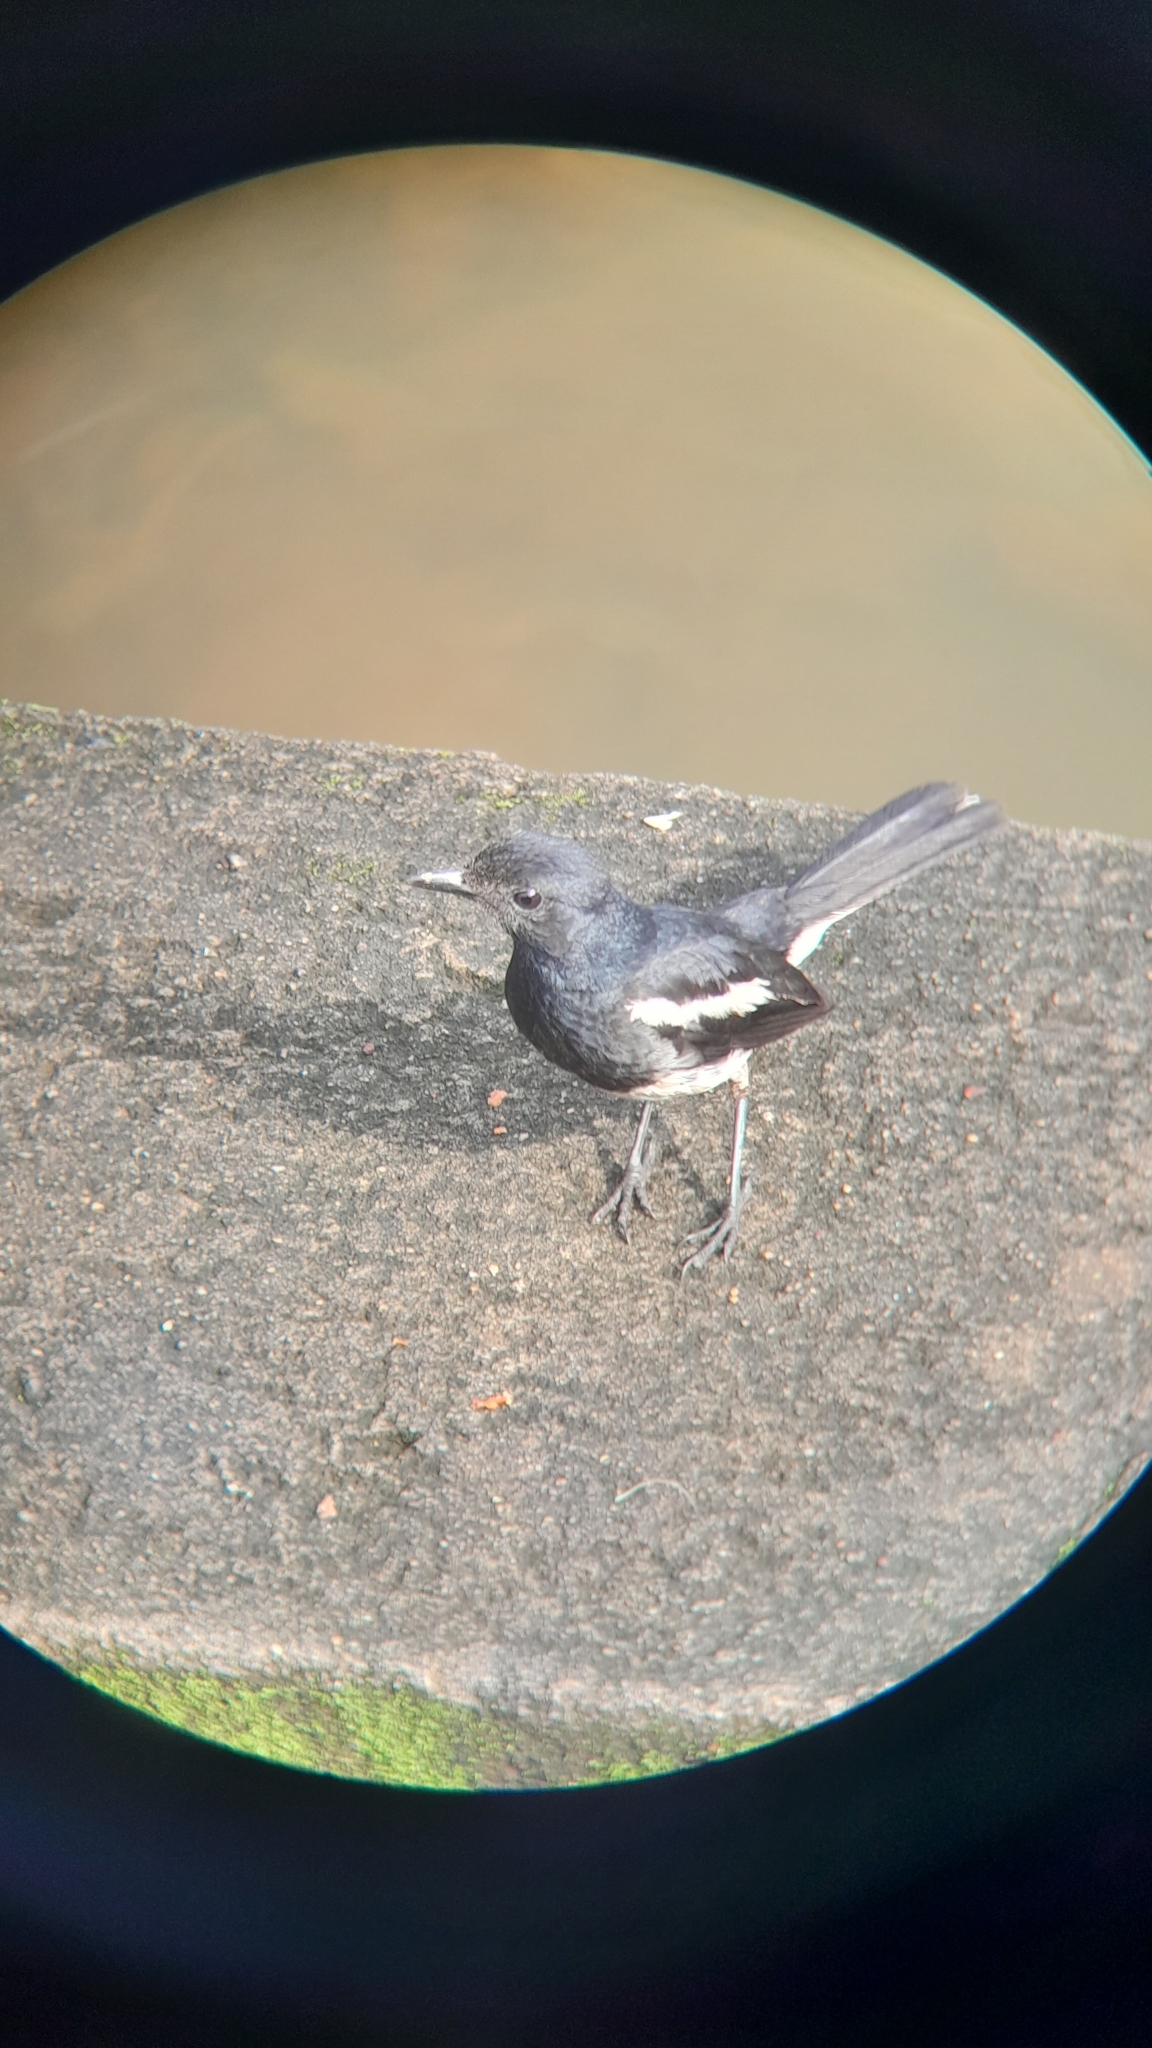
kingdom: Animalia
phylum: Chordata
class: Aves
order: Passeriformes
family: Muscicapidae
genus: Copsychus
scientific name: Copsychus saularis
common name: Oriental magpie-robin
